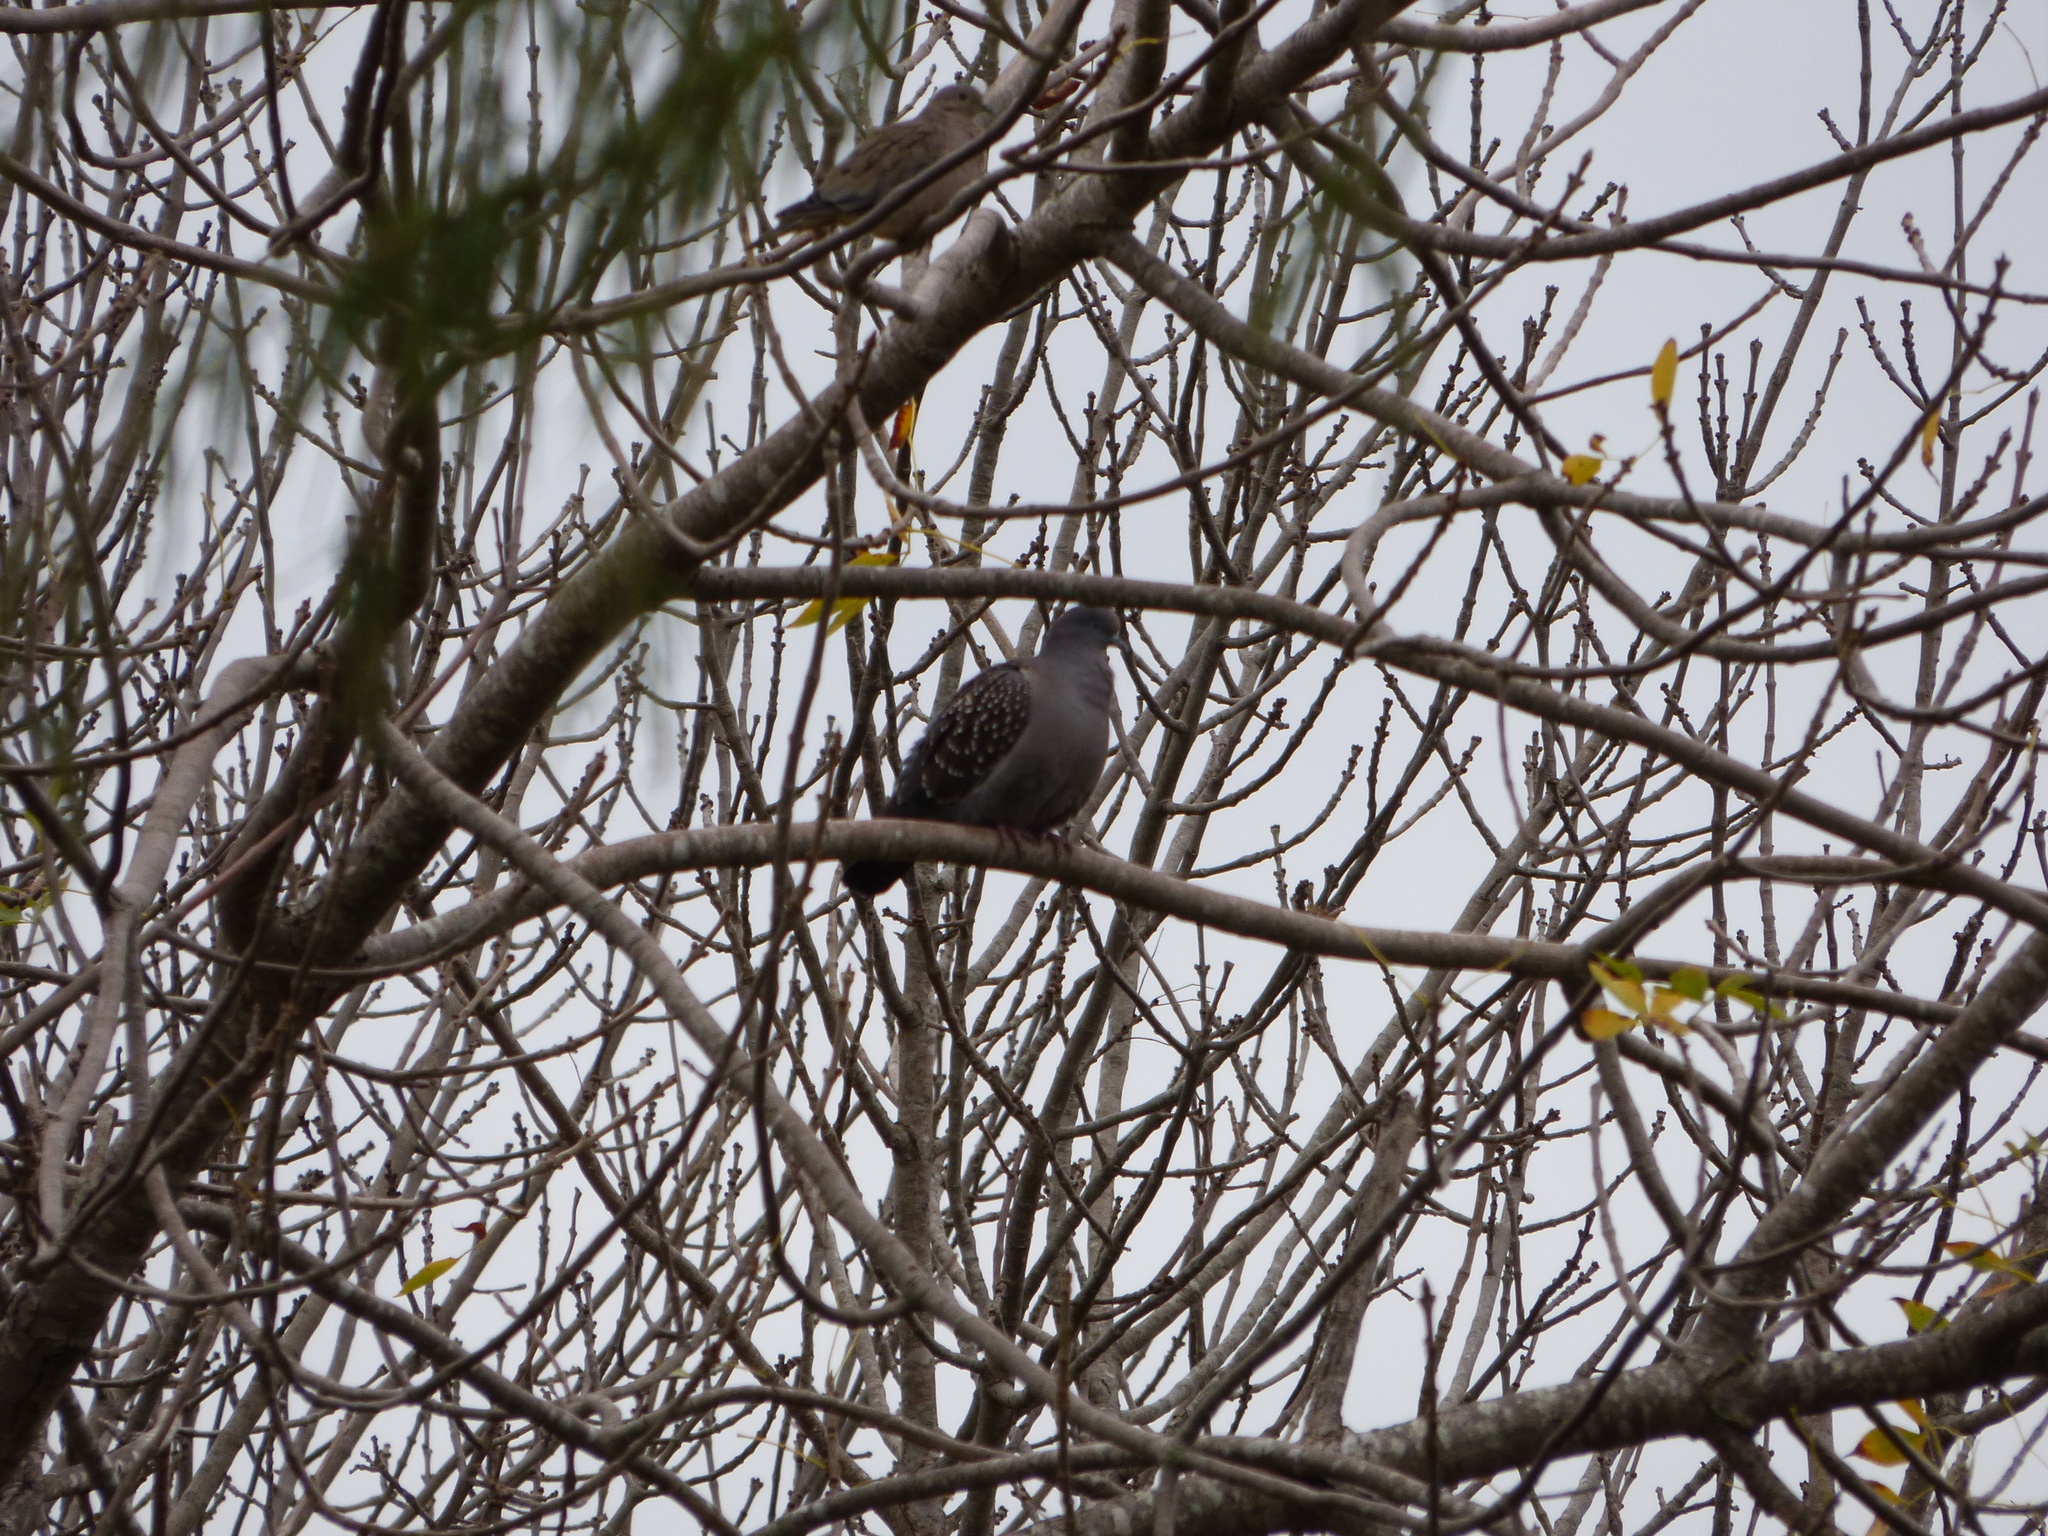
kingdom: Animalia
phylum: Chordata
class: Aves
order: Columbiformes
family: Columbidae
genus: Patagioenas
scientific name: Patagioenas maculosa
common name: Spot-winged pigeon
